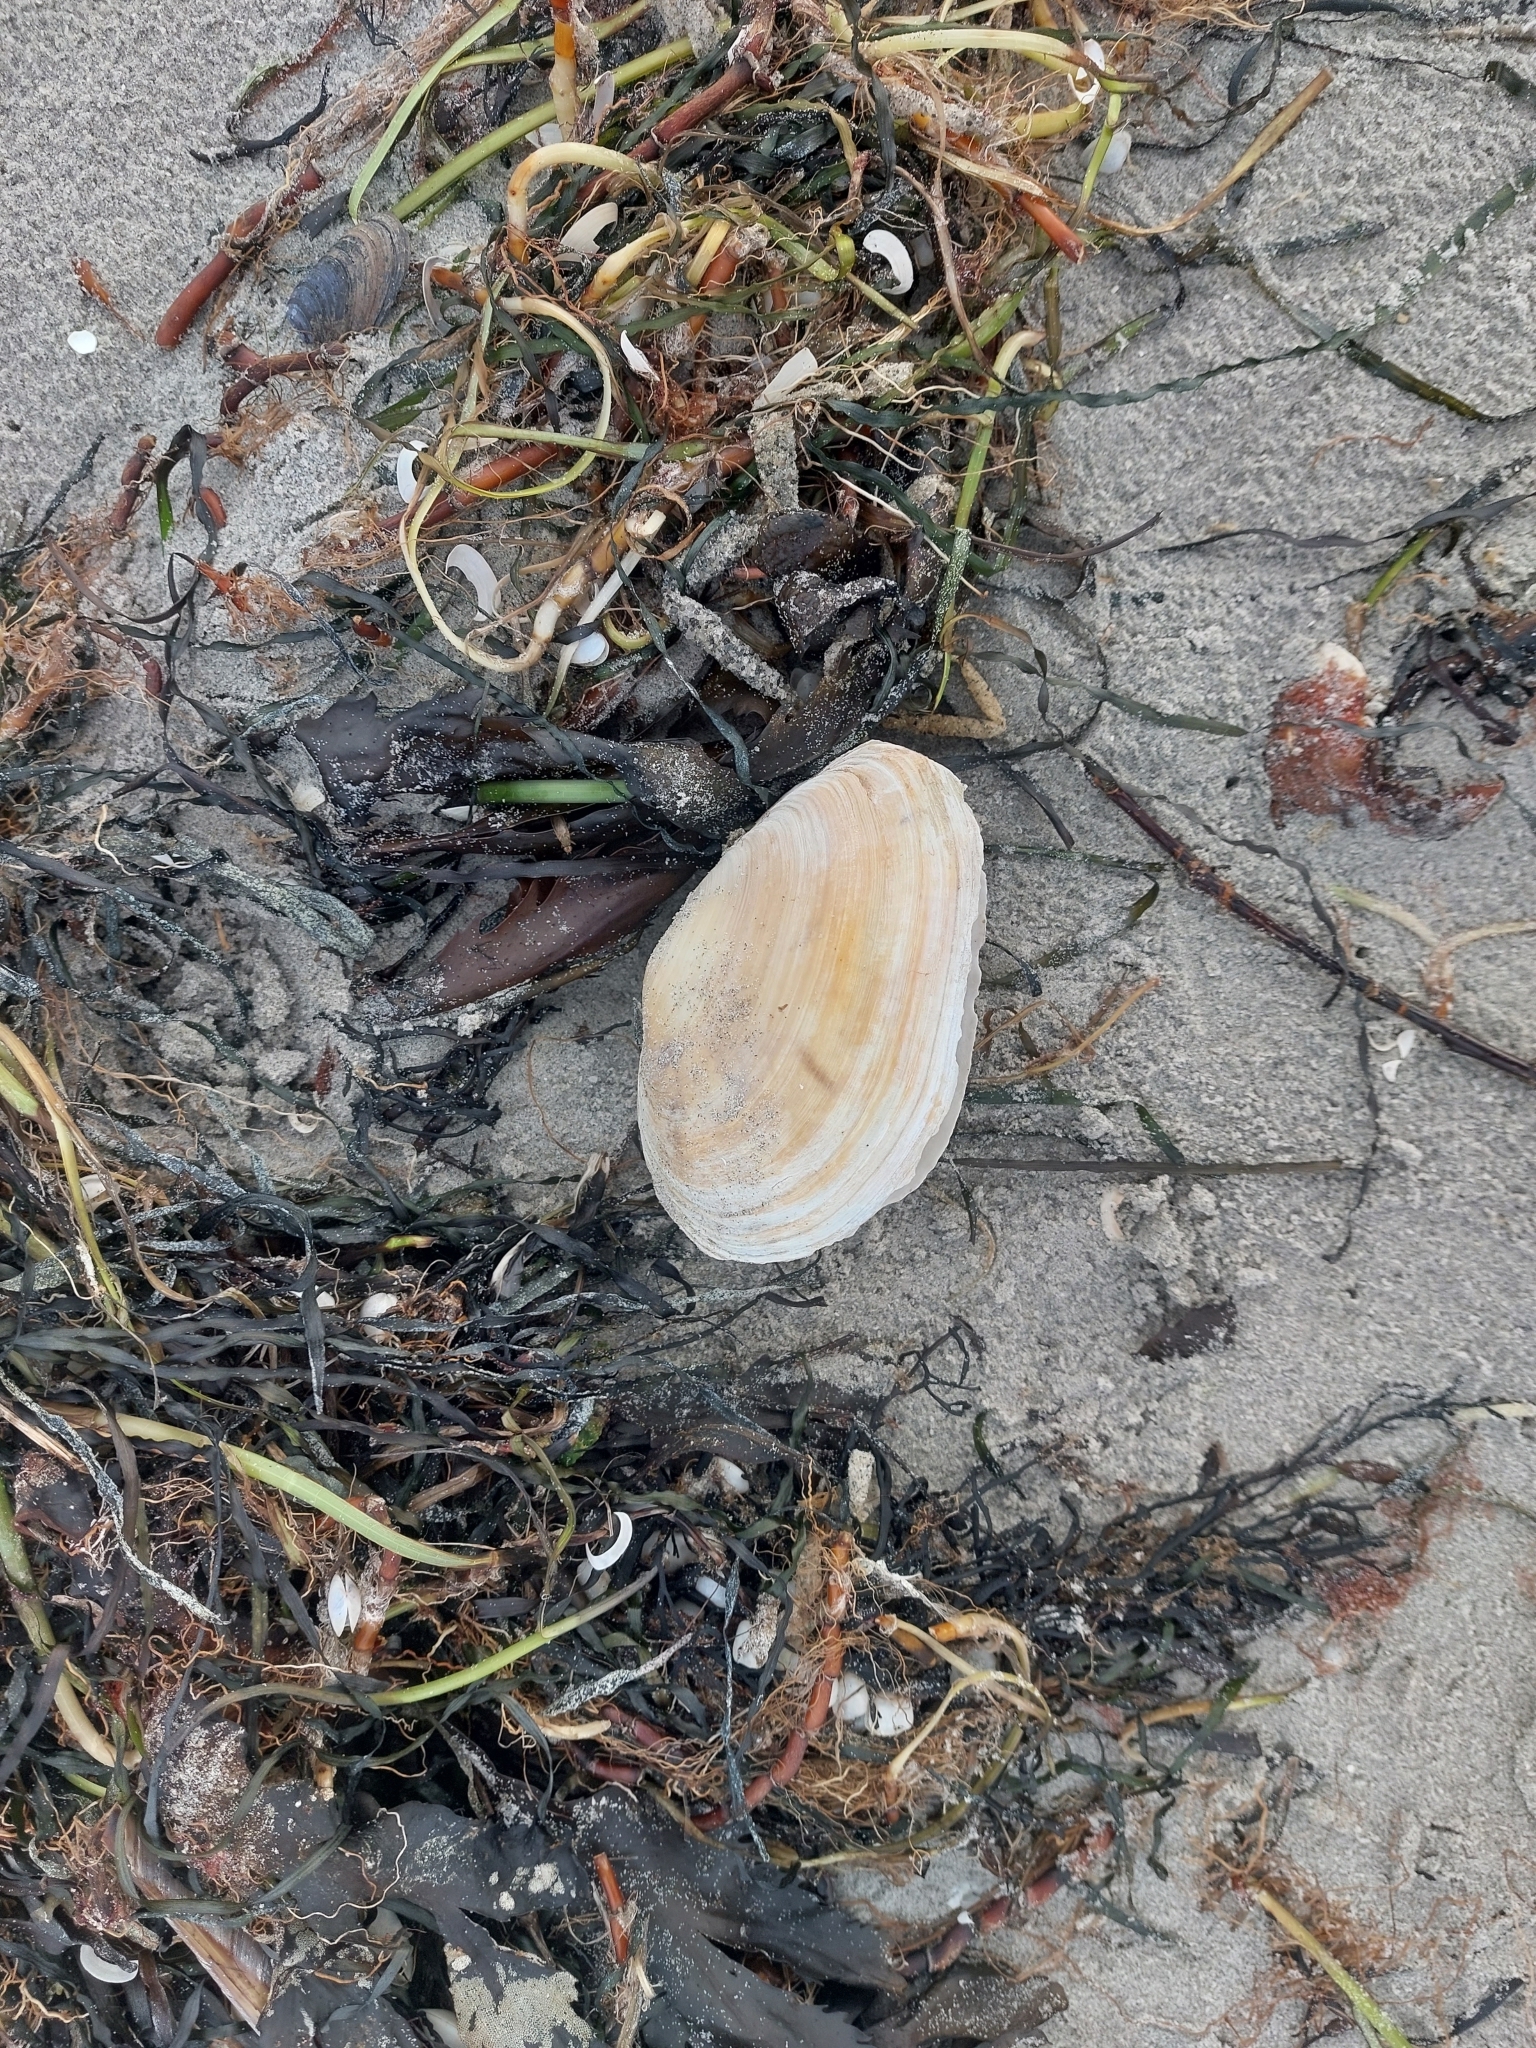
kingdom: Animalia
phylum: Mollusca
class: Bivalvia
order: Myida
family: Myidae
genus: Mya
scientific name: Mya arenaria
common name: Soft-shelled clam
